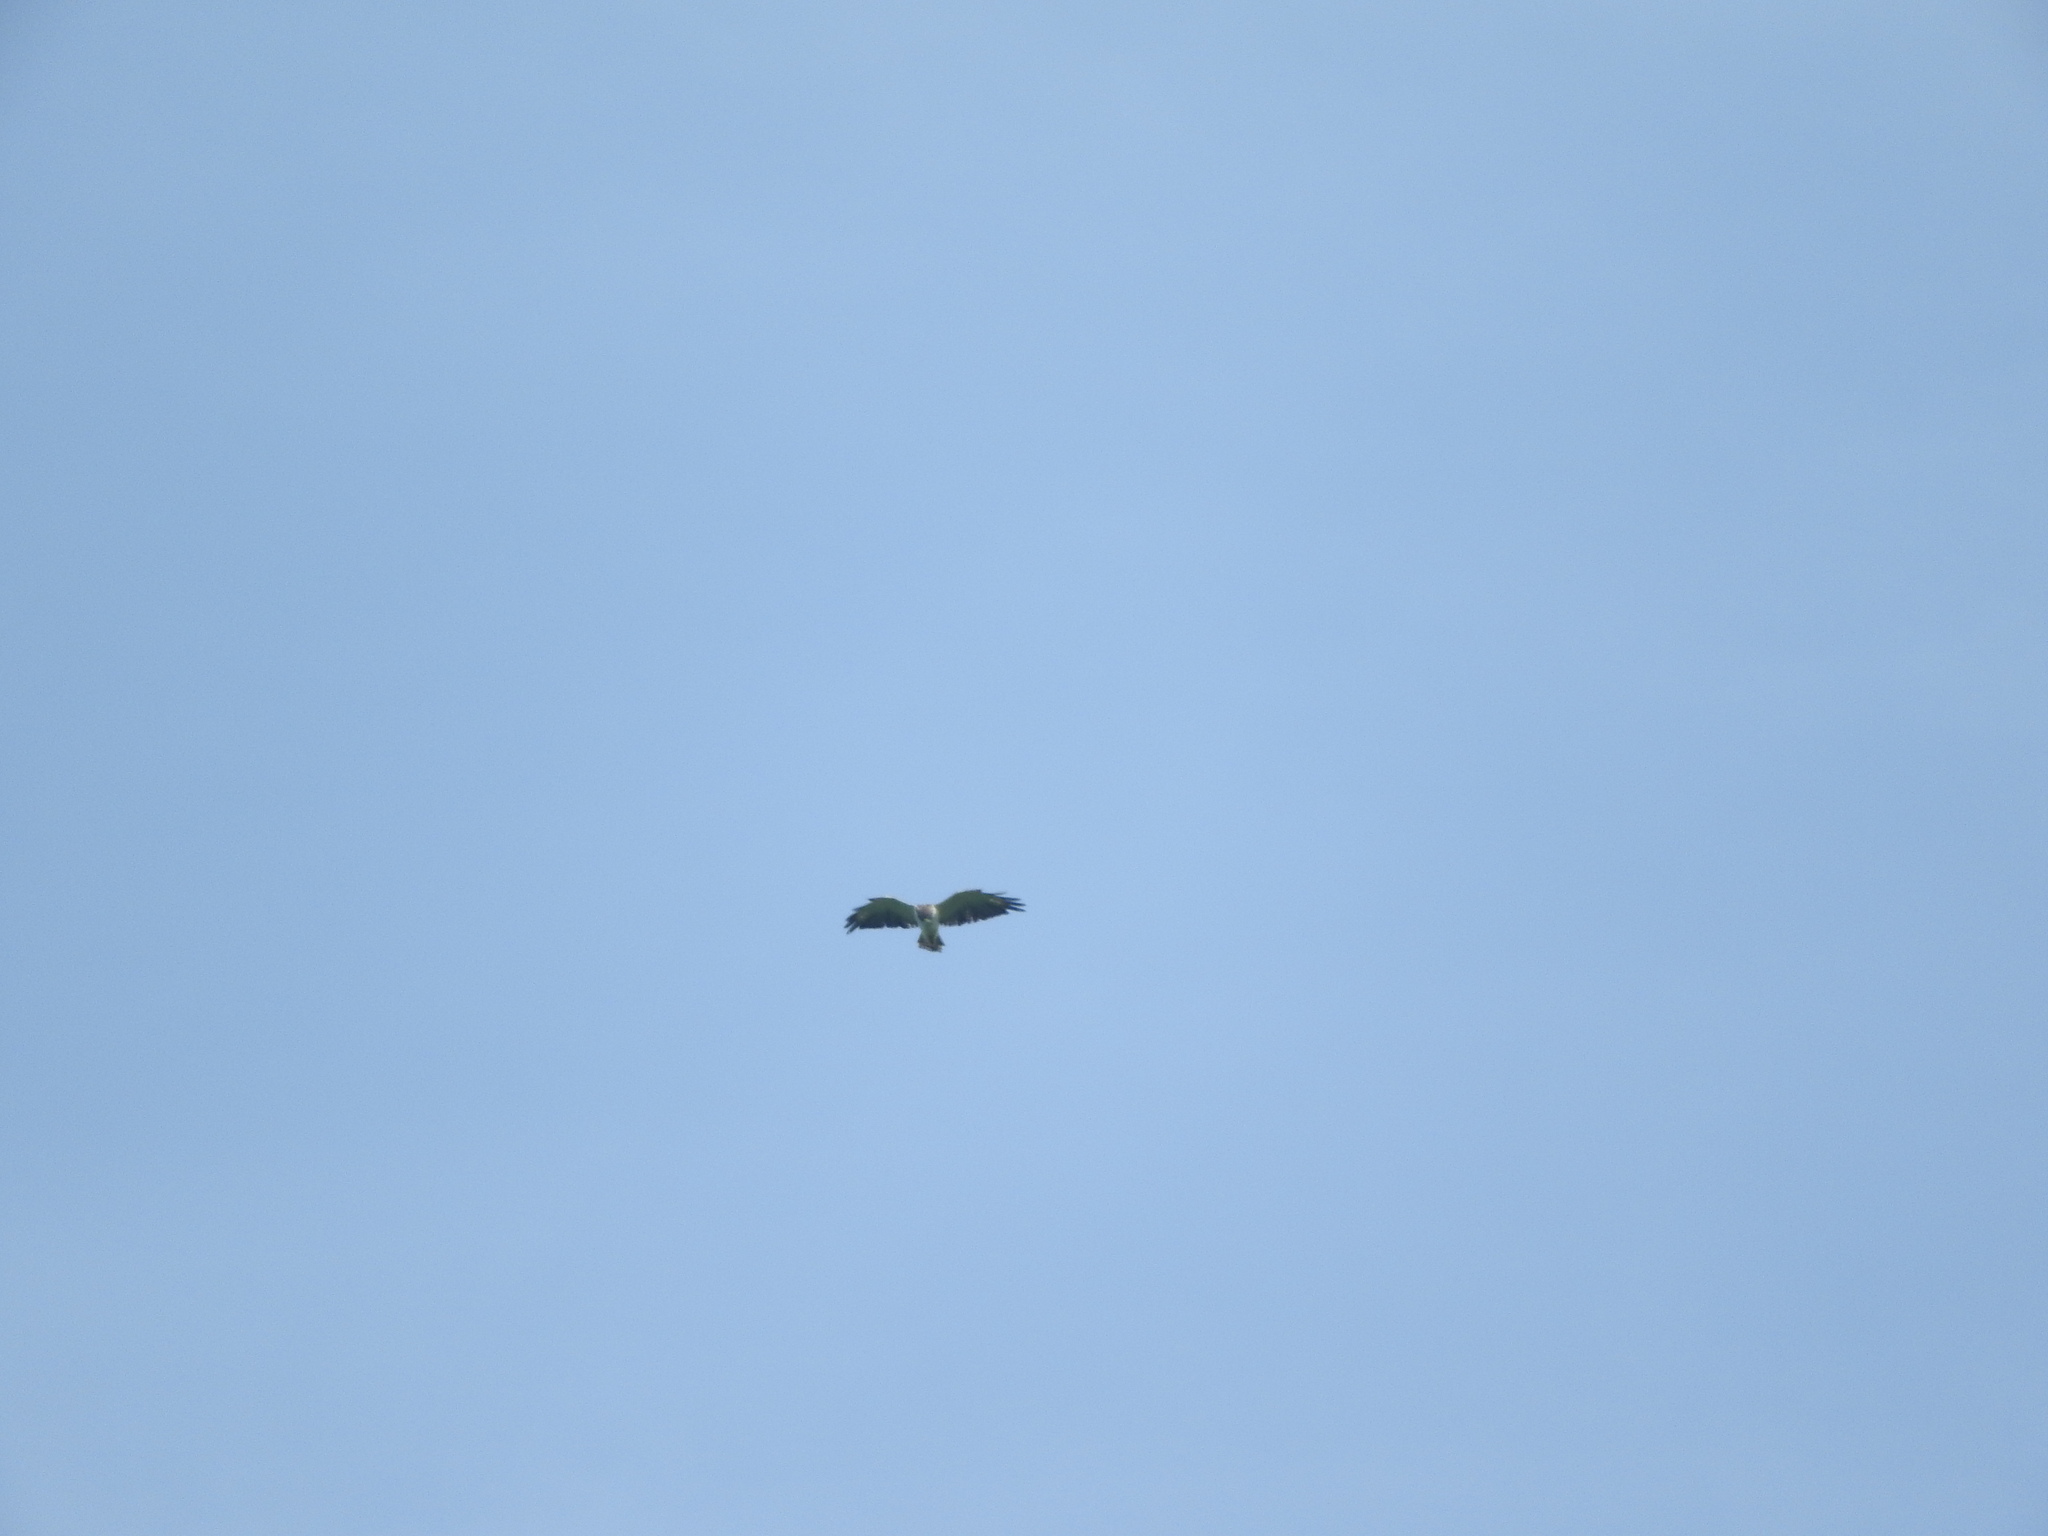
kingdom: Animalia
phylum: Chordata
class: Aves
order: Accipitriformes
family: Accipitridae
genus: Buteo
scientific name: Buteo brachyurus
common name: Short-tailed hawk
